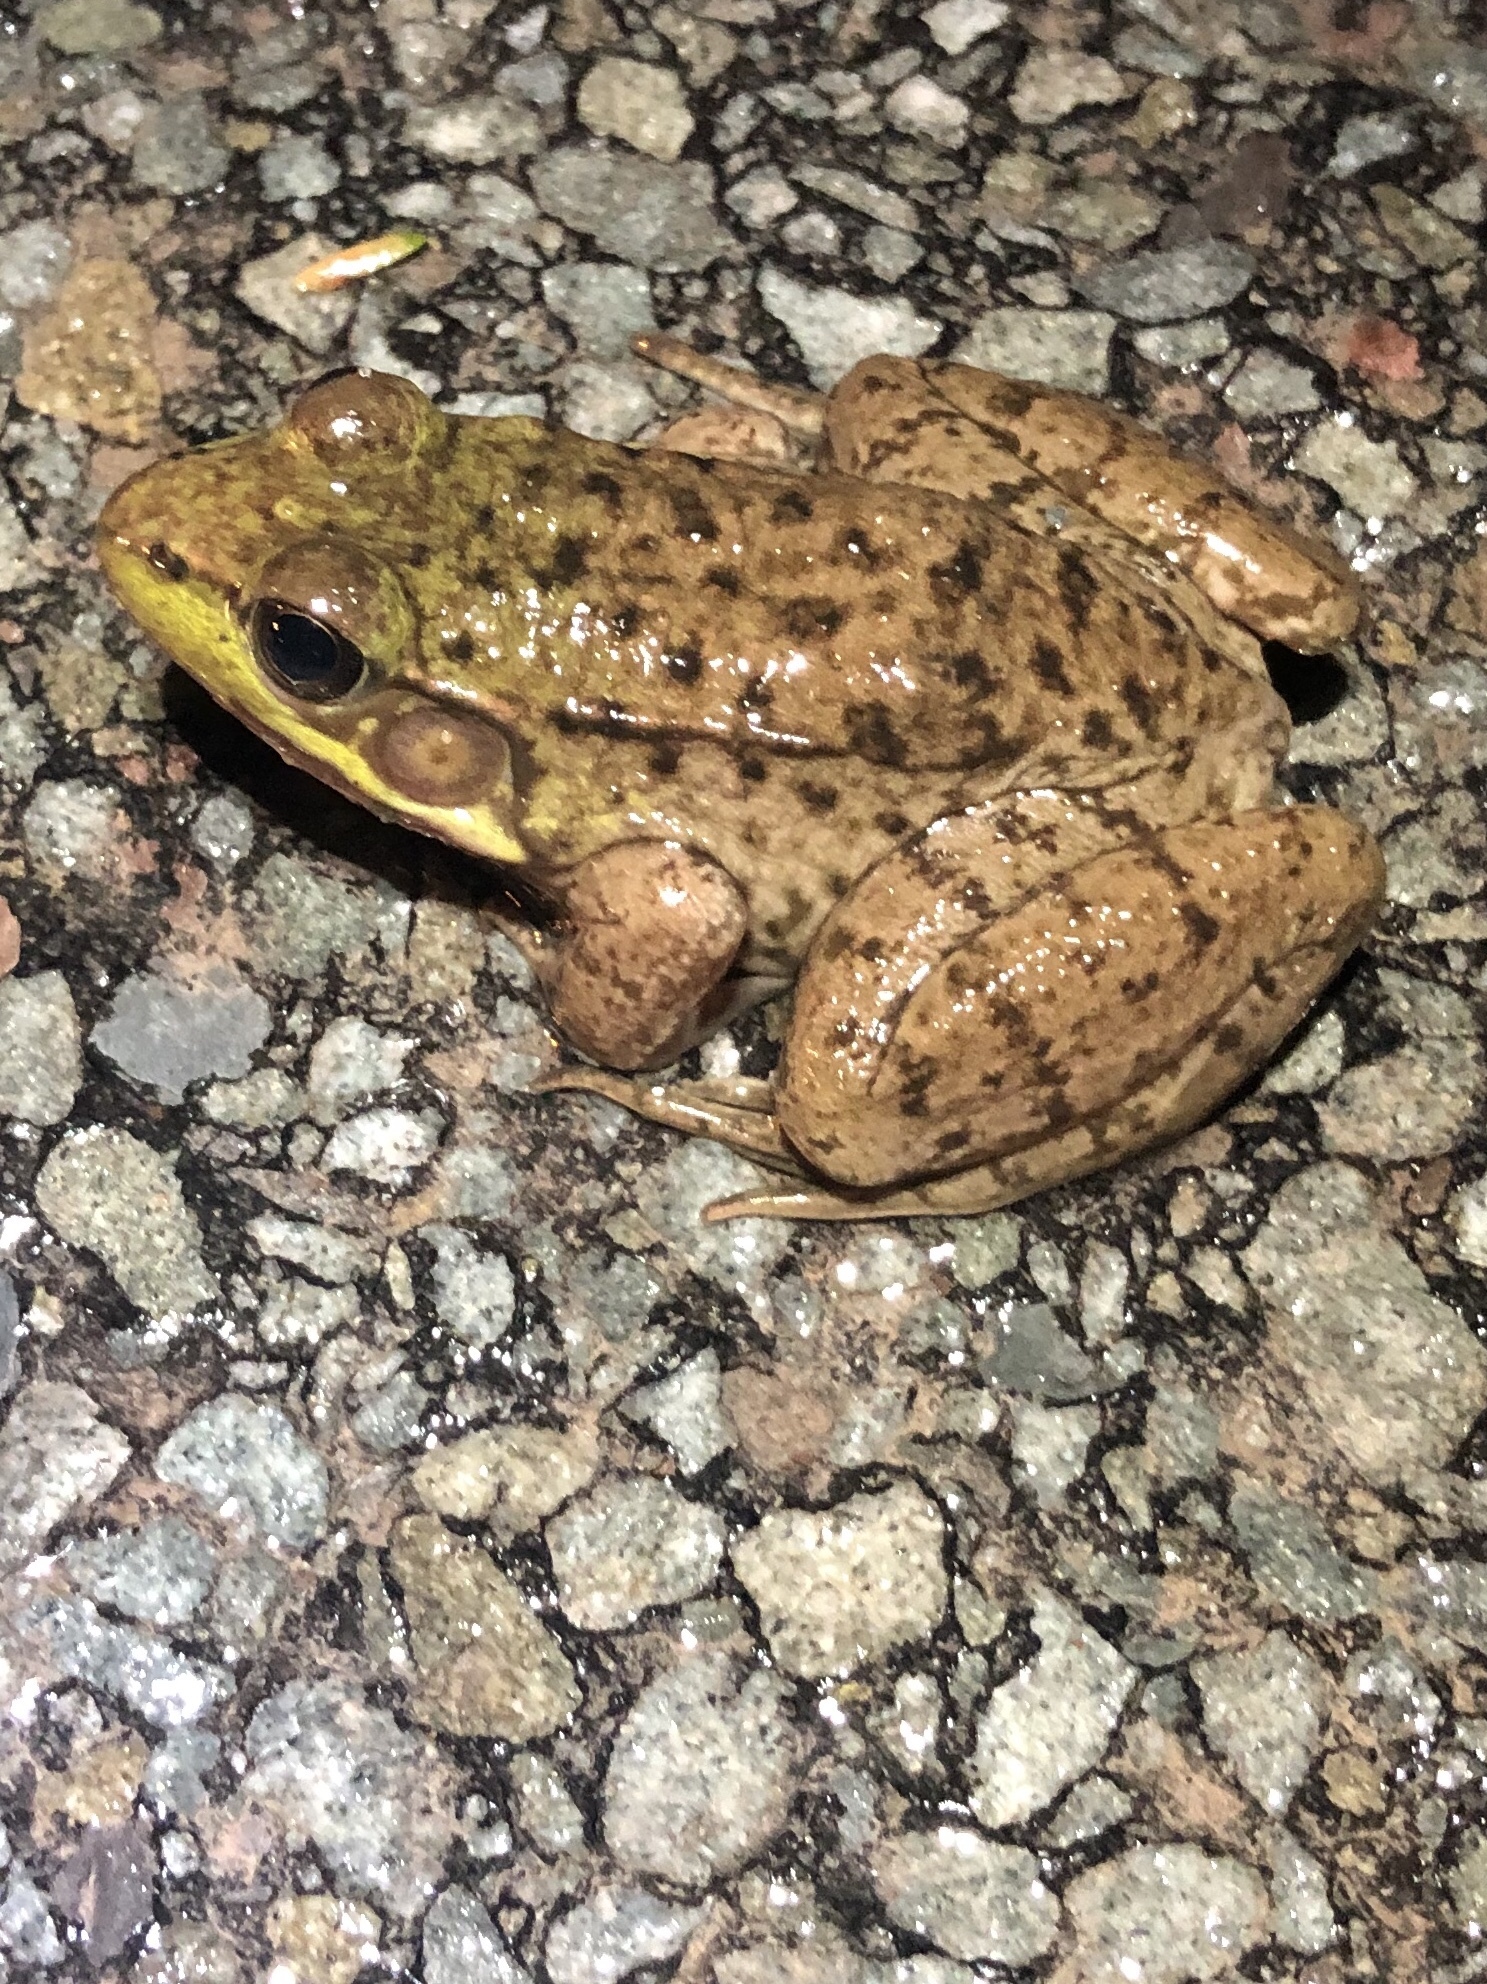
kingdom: Animalia
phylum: Chordata
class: Amphibia
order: Anura
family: Ranidae
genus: Lithobates
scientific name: Lithobates clamitans
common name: Green frog
